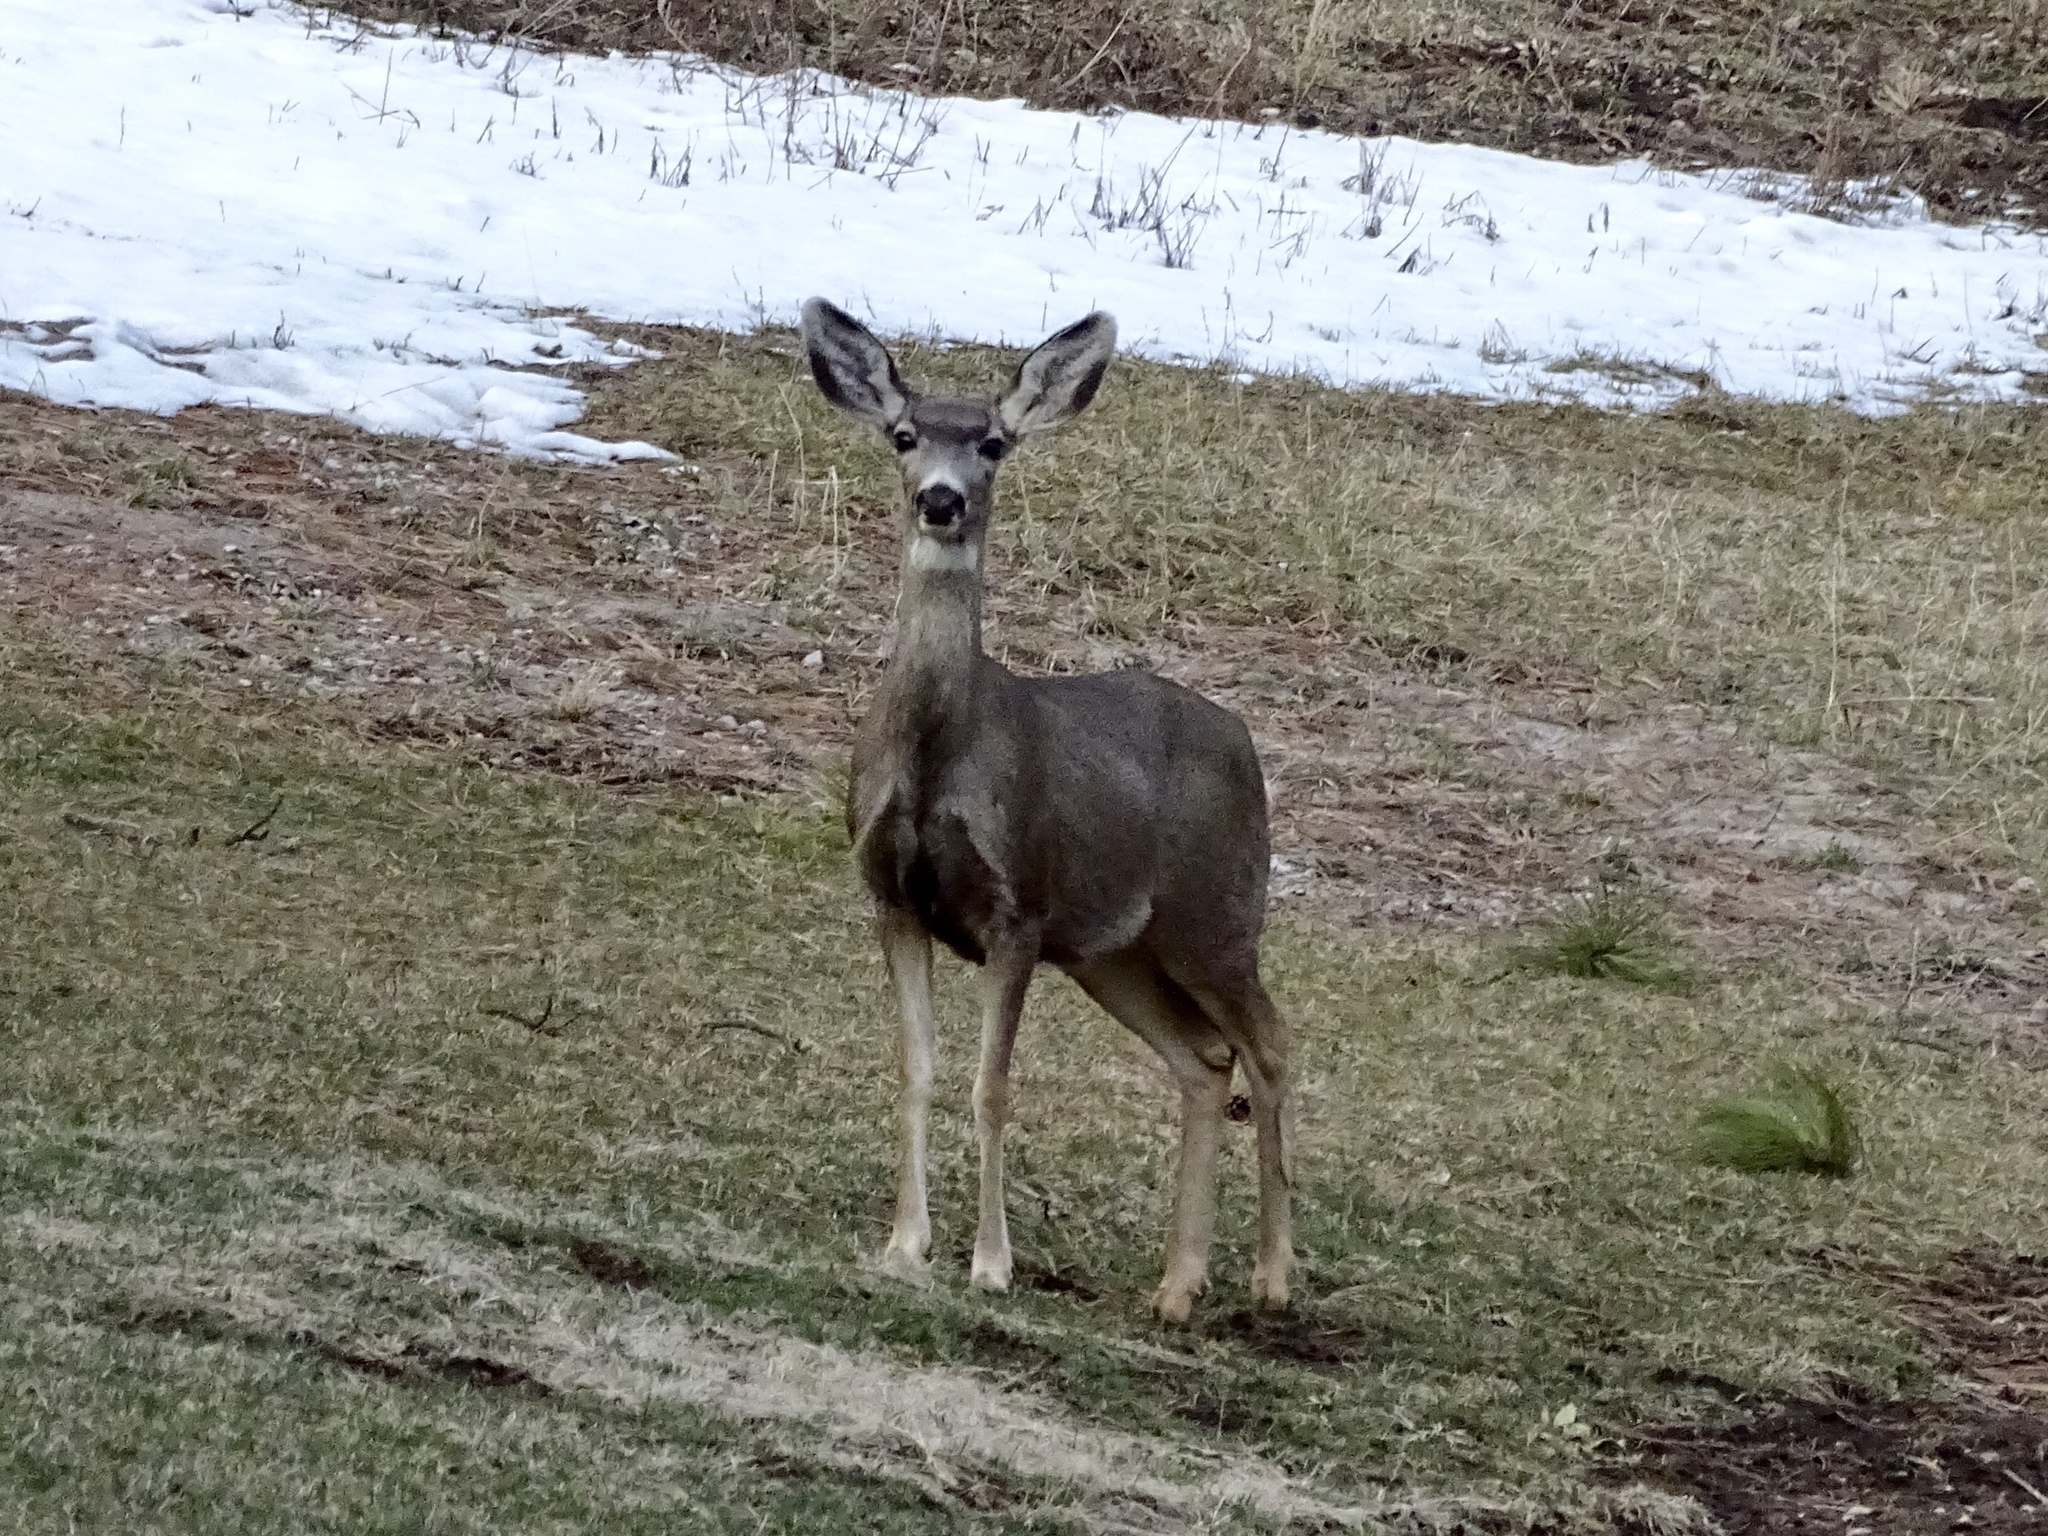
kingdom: Animalia
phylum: Chordata
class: Mammalia
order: Artiodactyla
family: Cervidae
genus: Odocoileus
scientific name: Odocoileus hemionus
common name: Mule deer
